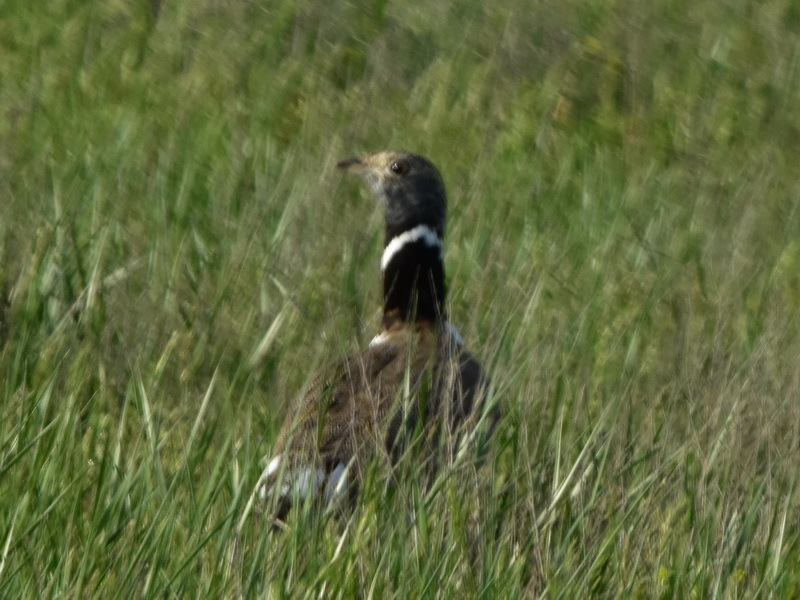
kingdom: Animalia
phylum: Chordata
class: Aves
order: Otidiformes
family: Otididae
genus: Tetrax
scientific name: Tetrax tetrax
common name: Little bustard
